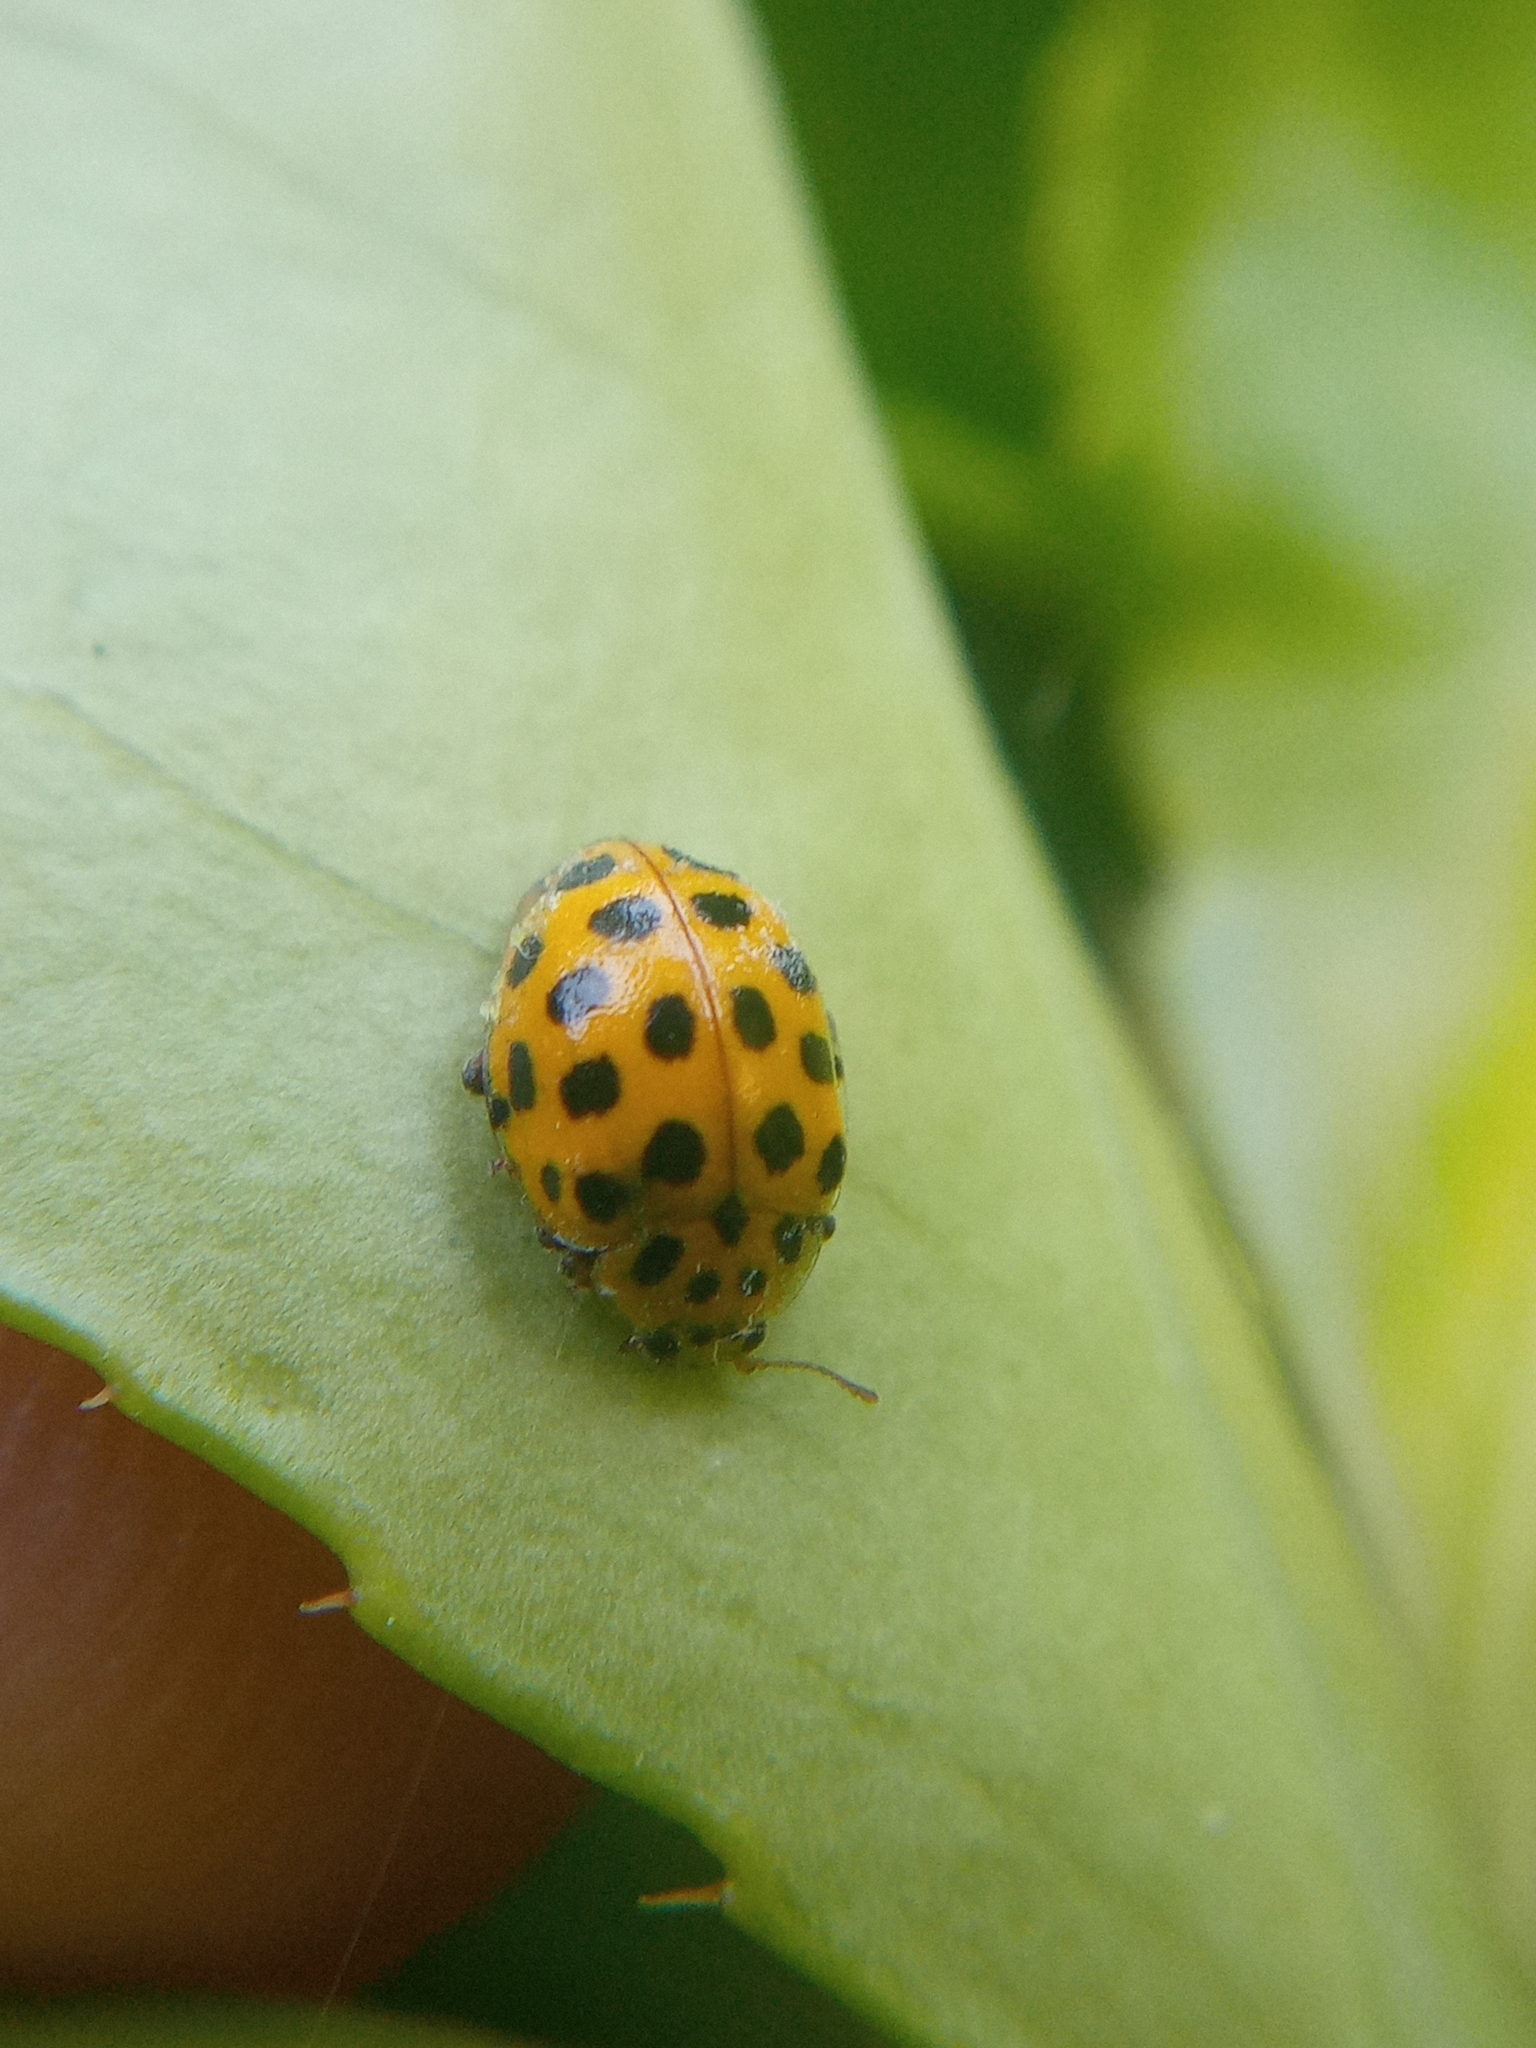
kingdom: Animalia
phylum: Arthropoda
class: Insecta
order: Coleoptera
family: Coccinellidae
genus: Psyllobora
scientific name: Psyllobora vigintiduopunctata
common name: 22-spot ladybird
